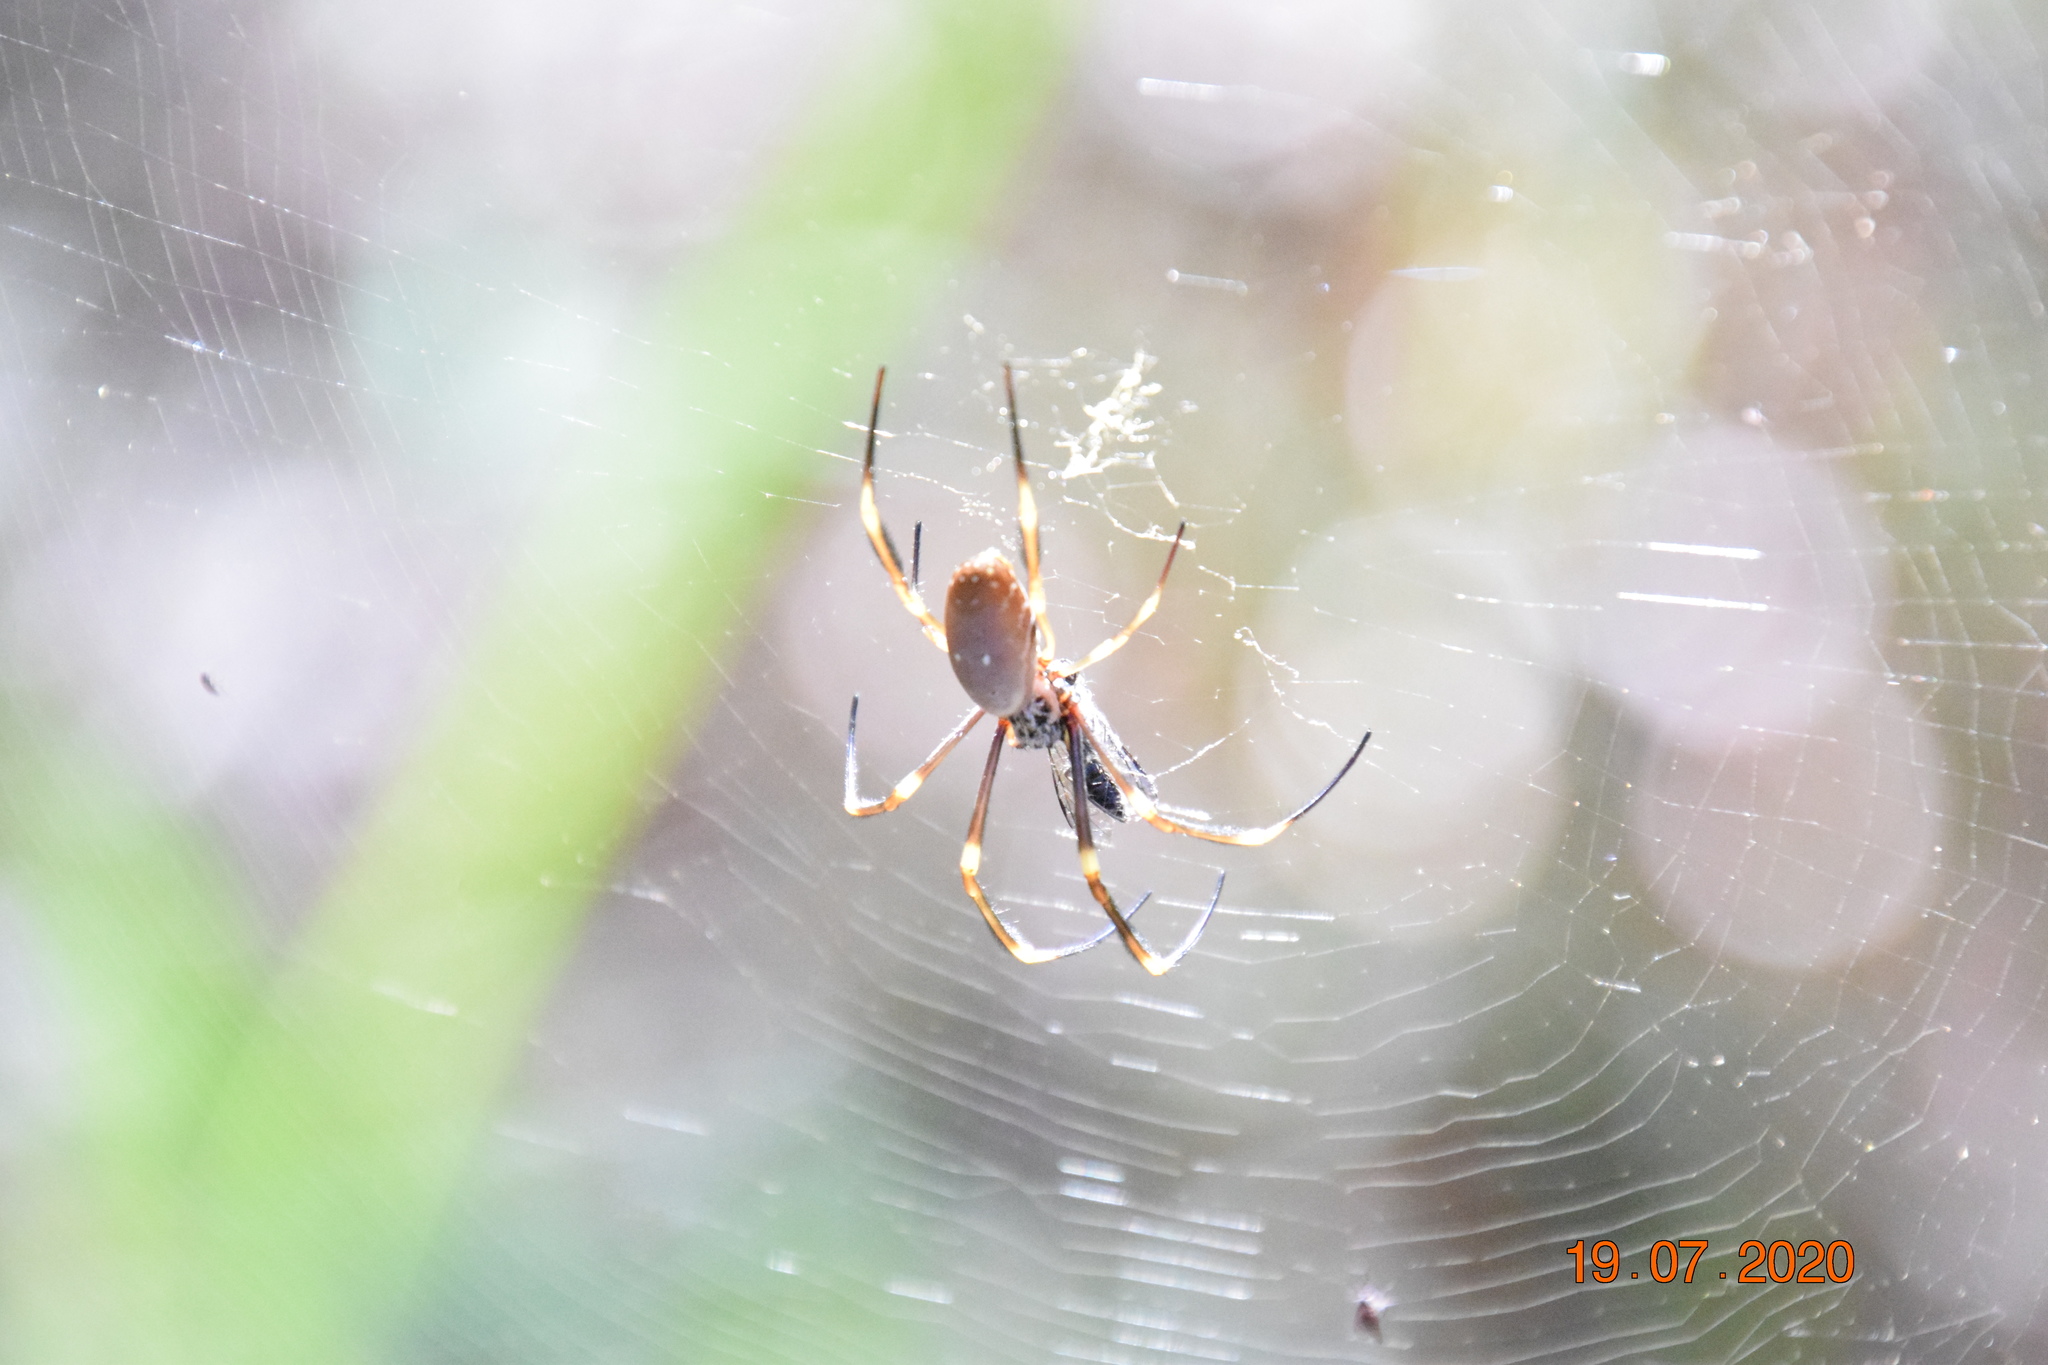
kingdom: Animalia
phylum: Arthropoda
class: Arachnida
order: Araneae
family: Araneidae
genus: Trichonephila
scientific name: Trichonephila plumipes
